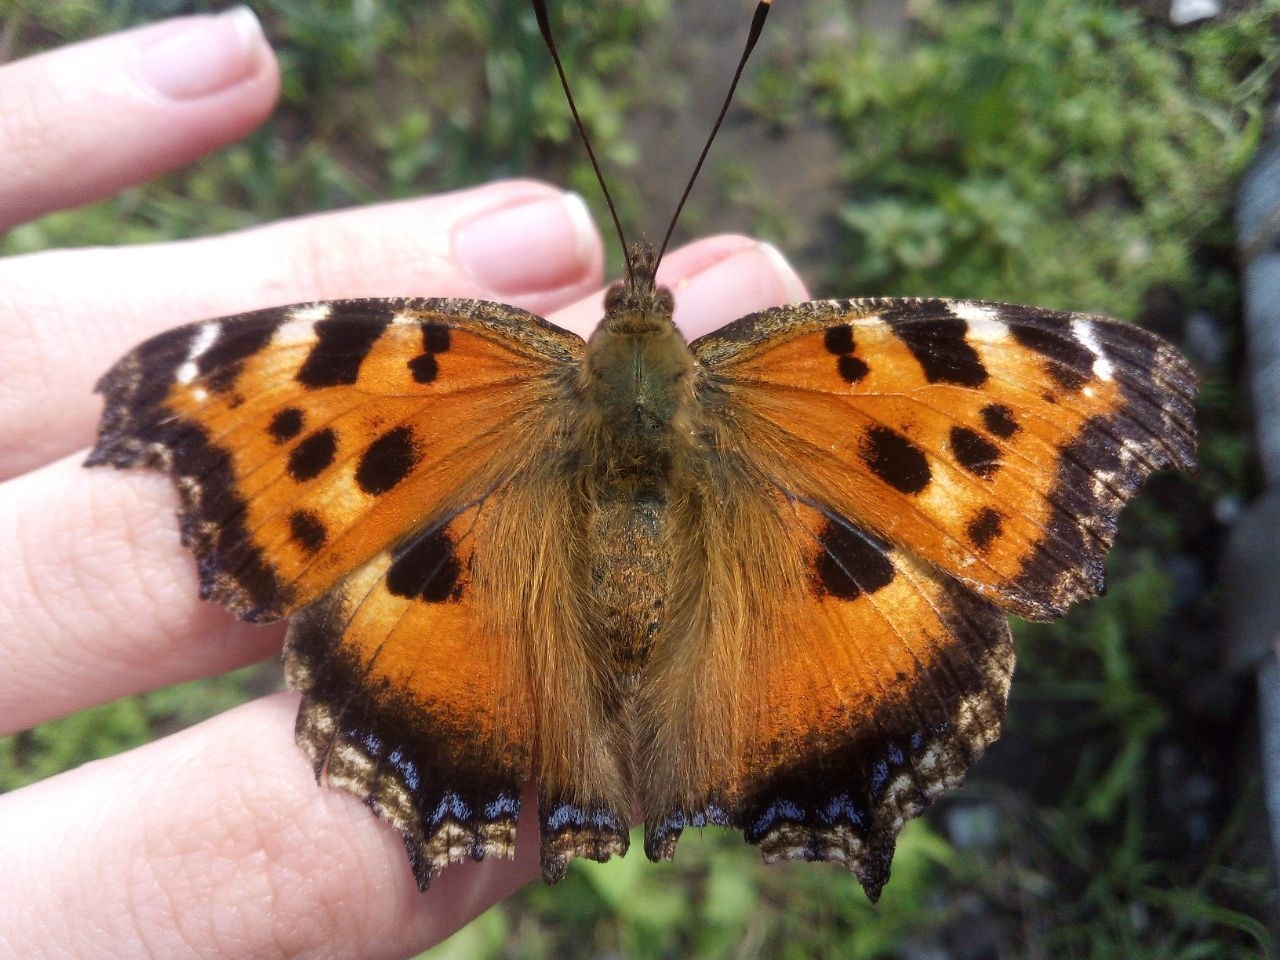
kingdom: Animalia
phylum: Arthropoda
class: Insecta
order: Lepidoptera
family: Nymphalidae
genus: Nymphalis
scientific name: Nymphalis xanthomelas
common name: Scarce tortoiseshell
